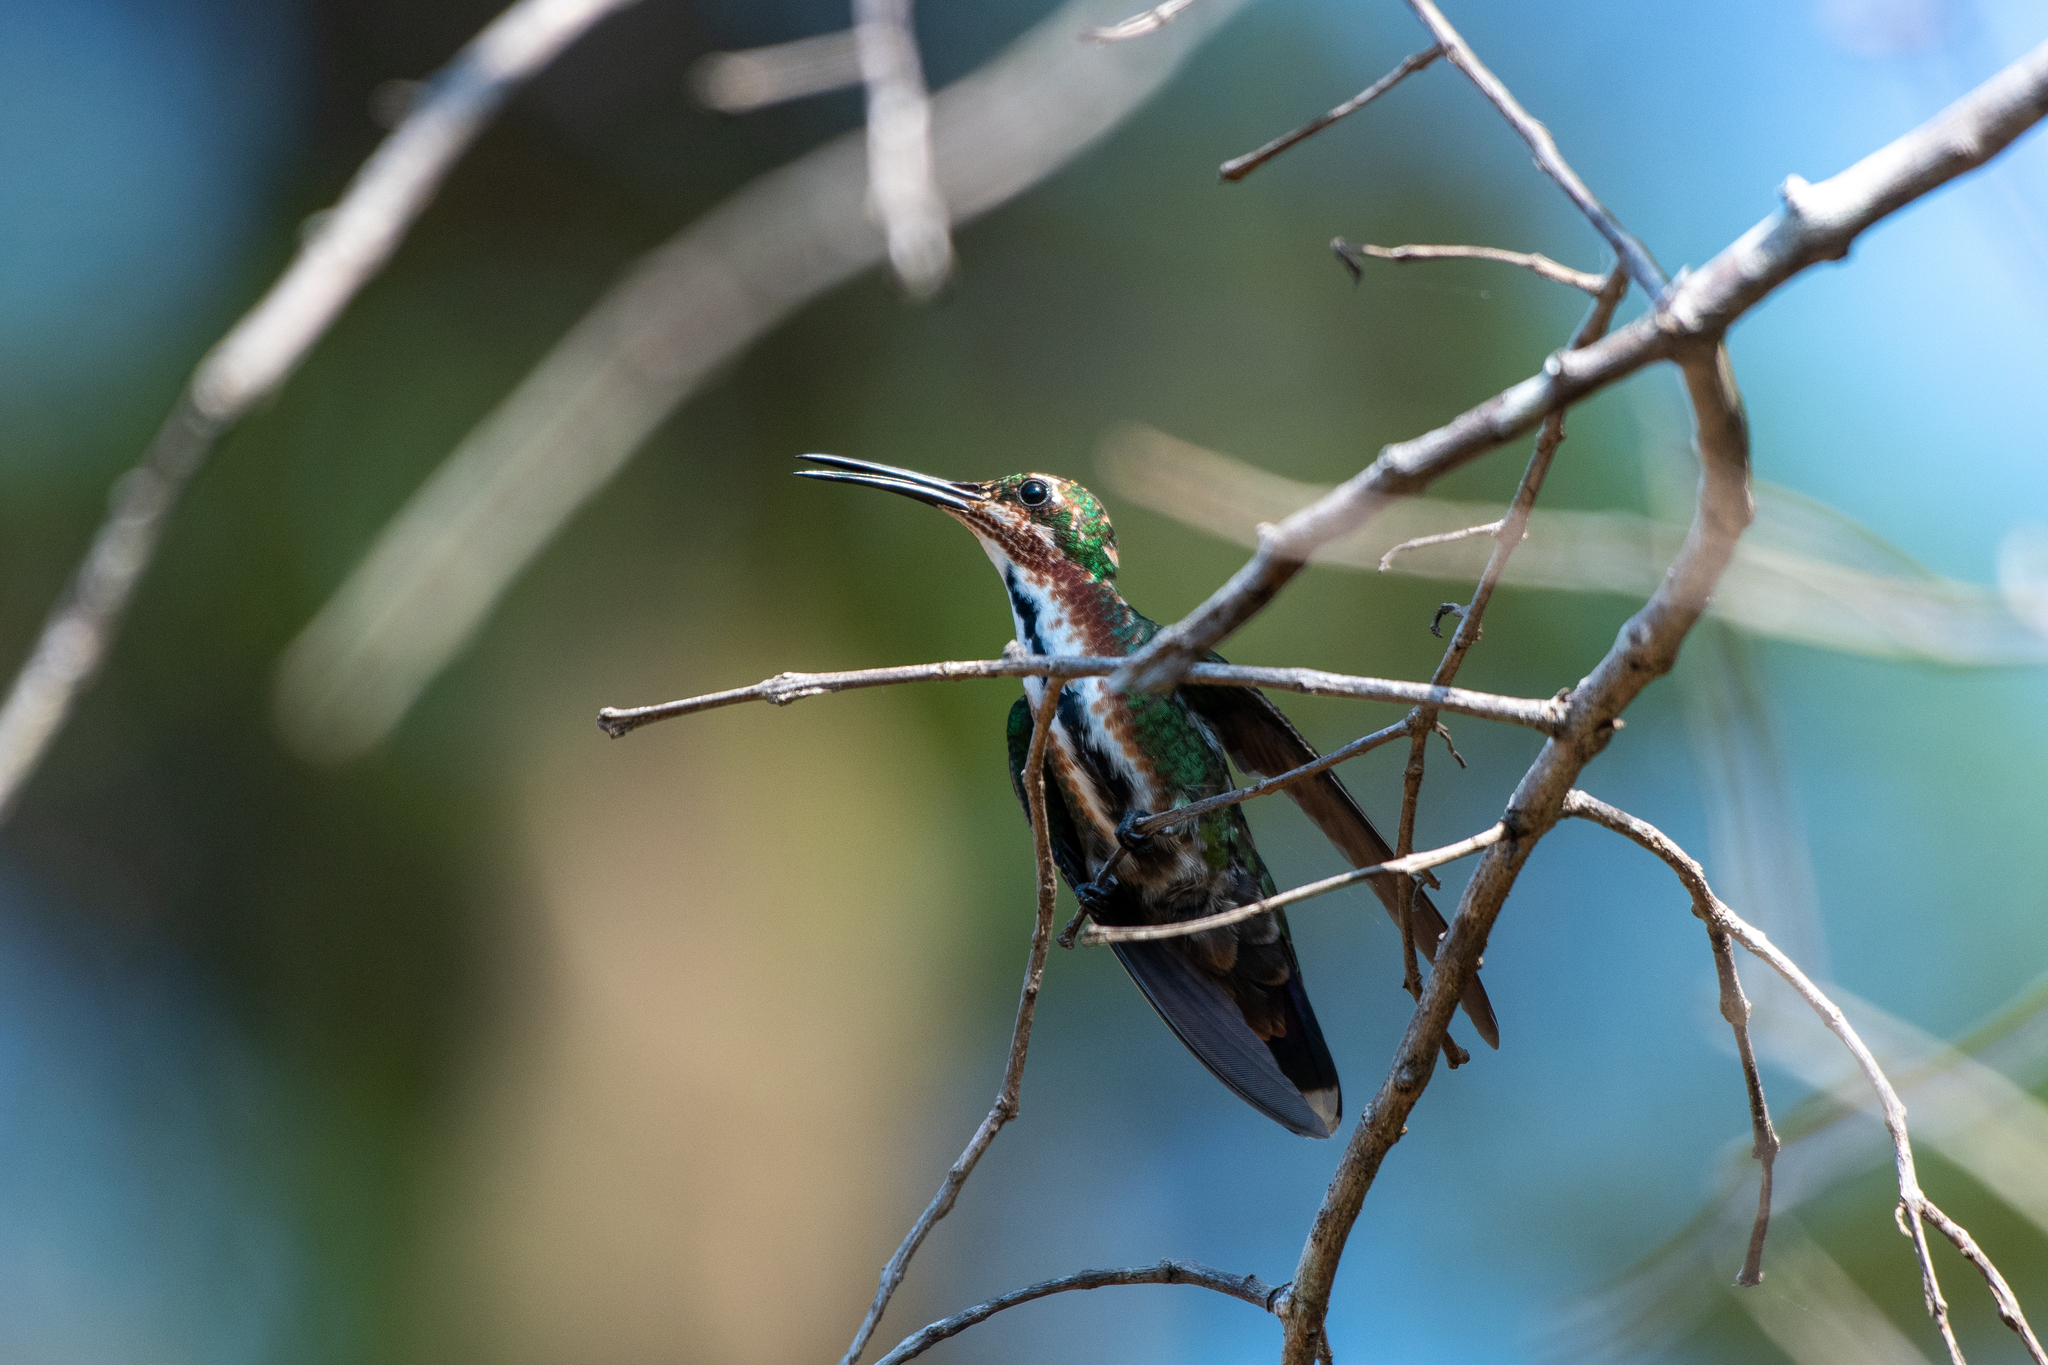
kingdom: Animalia
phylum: Chordata
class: Aves
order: Apodiformes
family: Trochilidae
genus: Anthracothorax
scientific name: Anthracothorax prevostii
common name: Green-breasted mango
